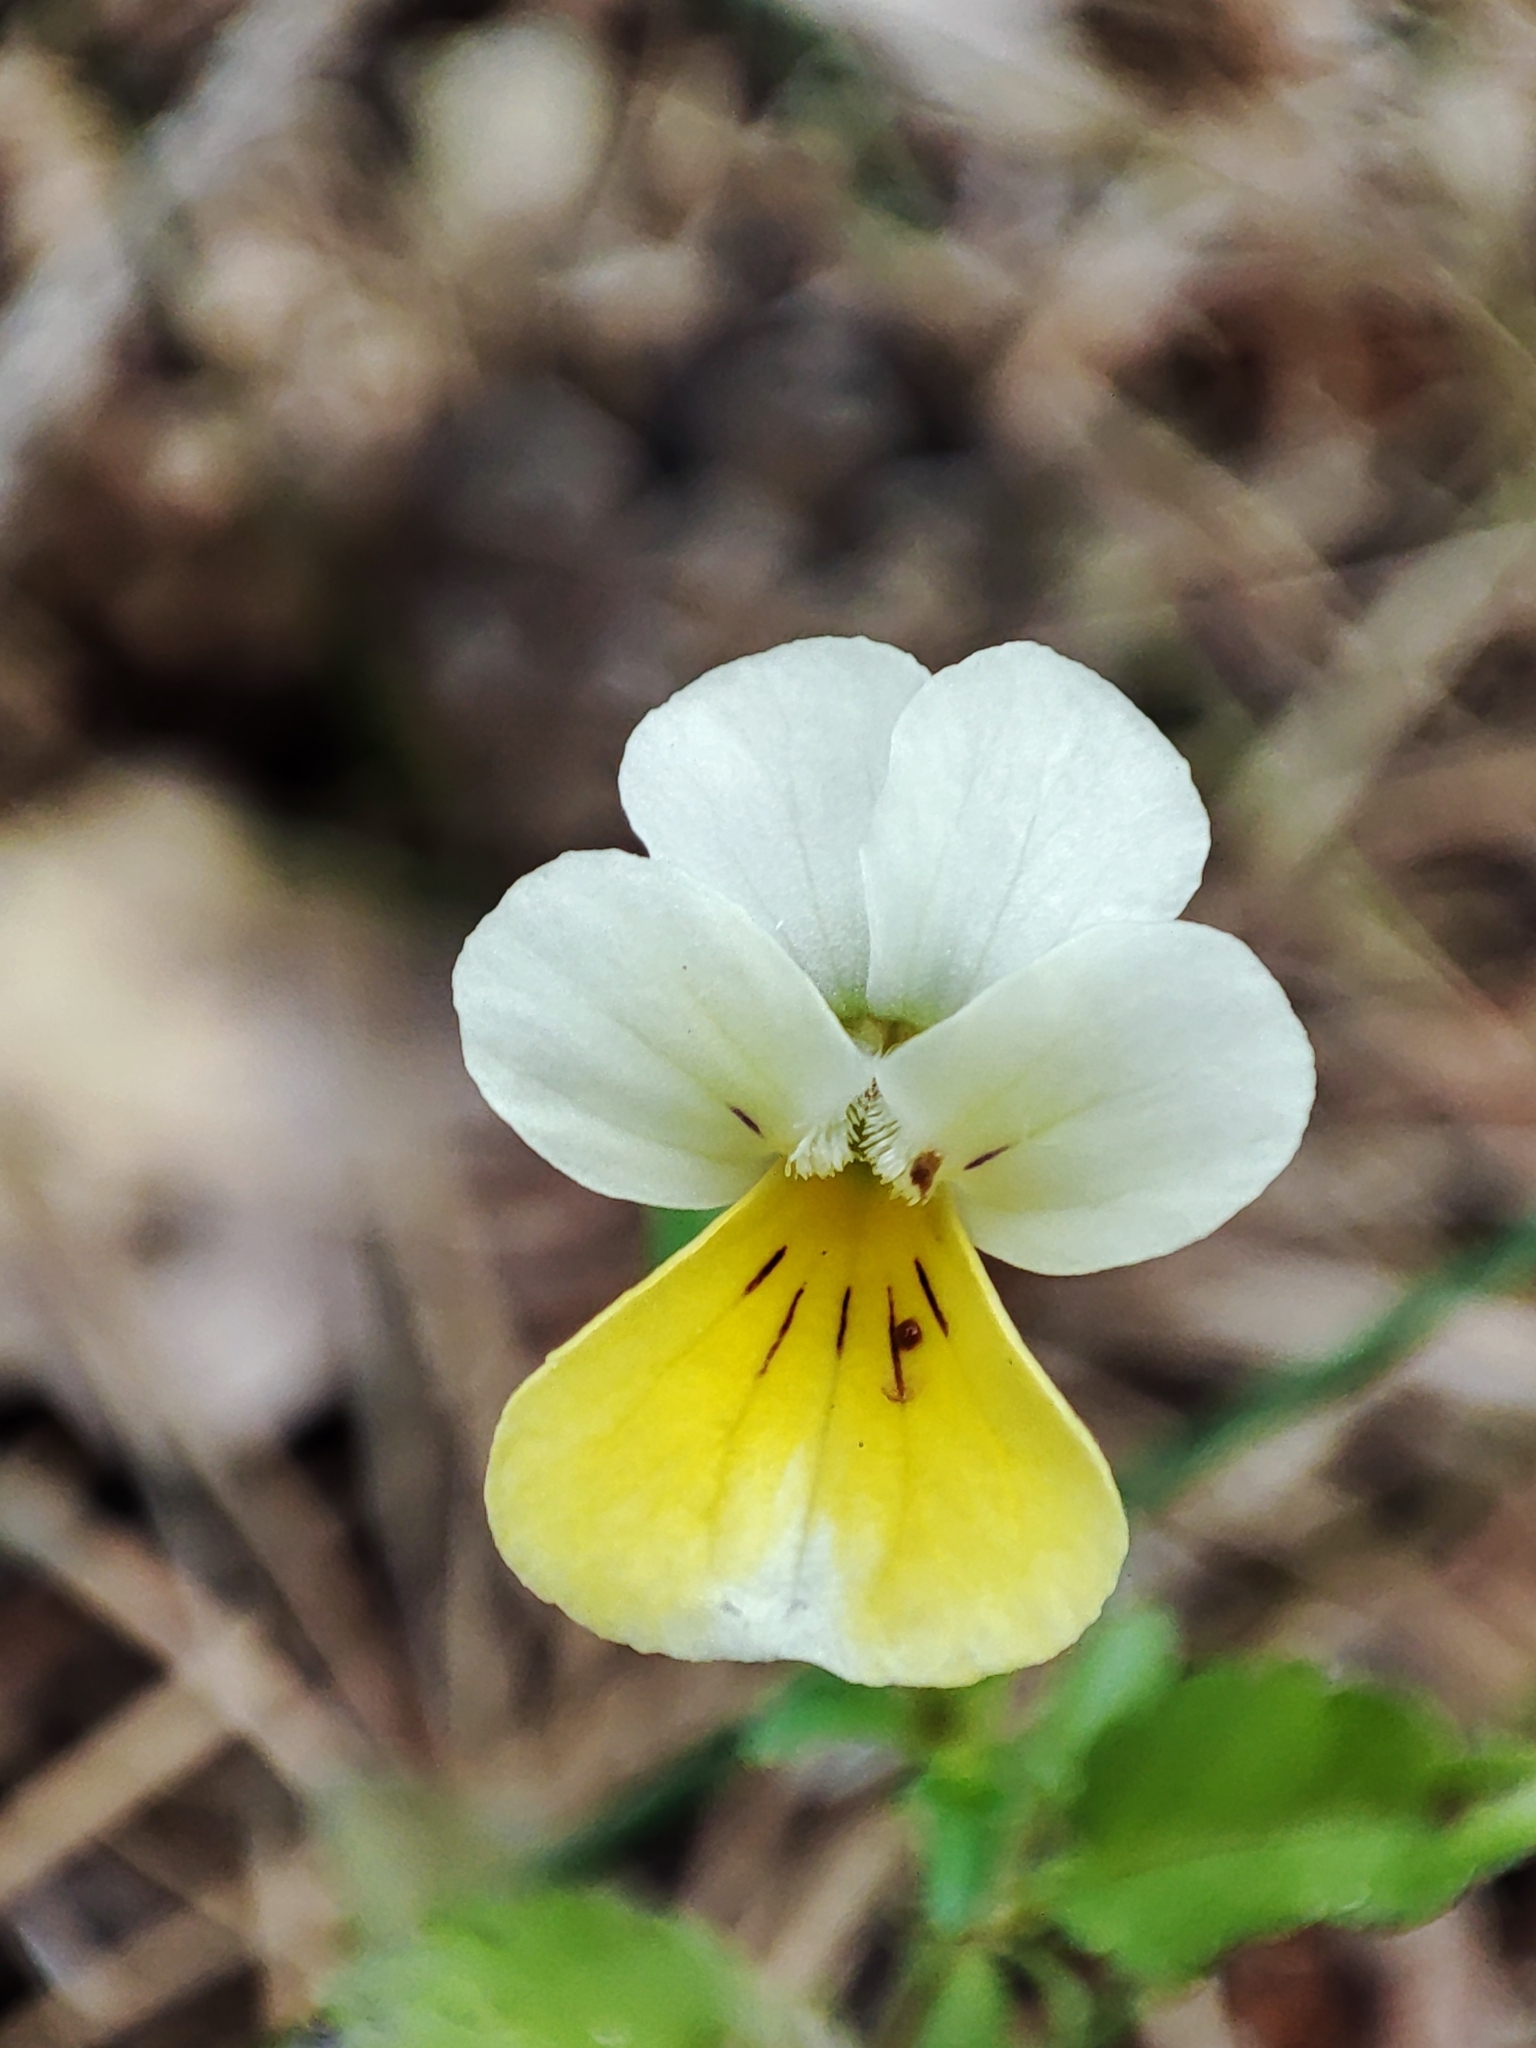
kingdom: Plantae
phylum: Tracheophyta
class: Magnoliopsida
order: Malpighiales
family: Violaceae
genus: Viola
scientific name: Viola arvensis
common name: Field pansy
